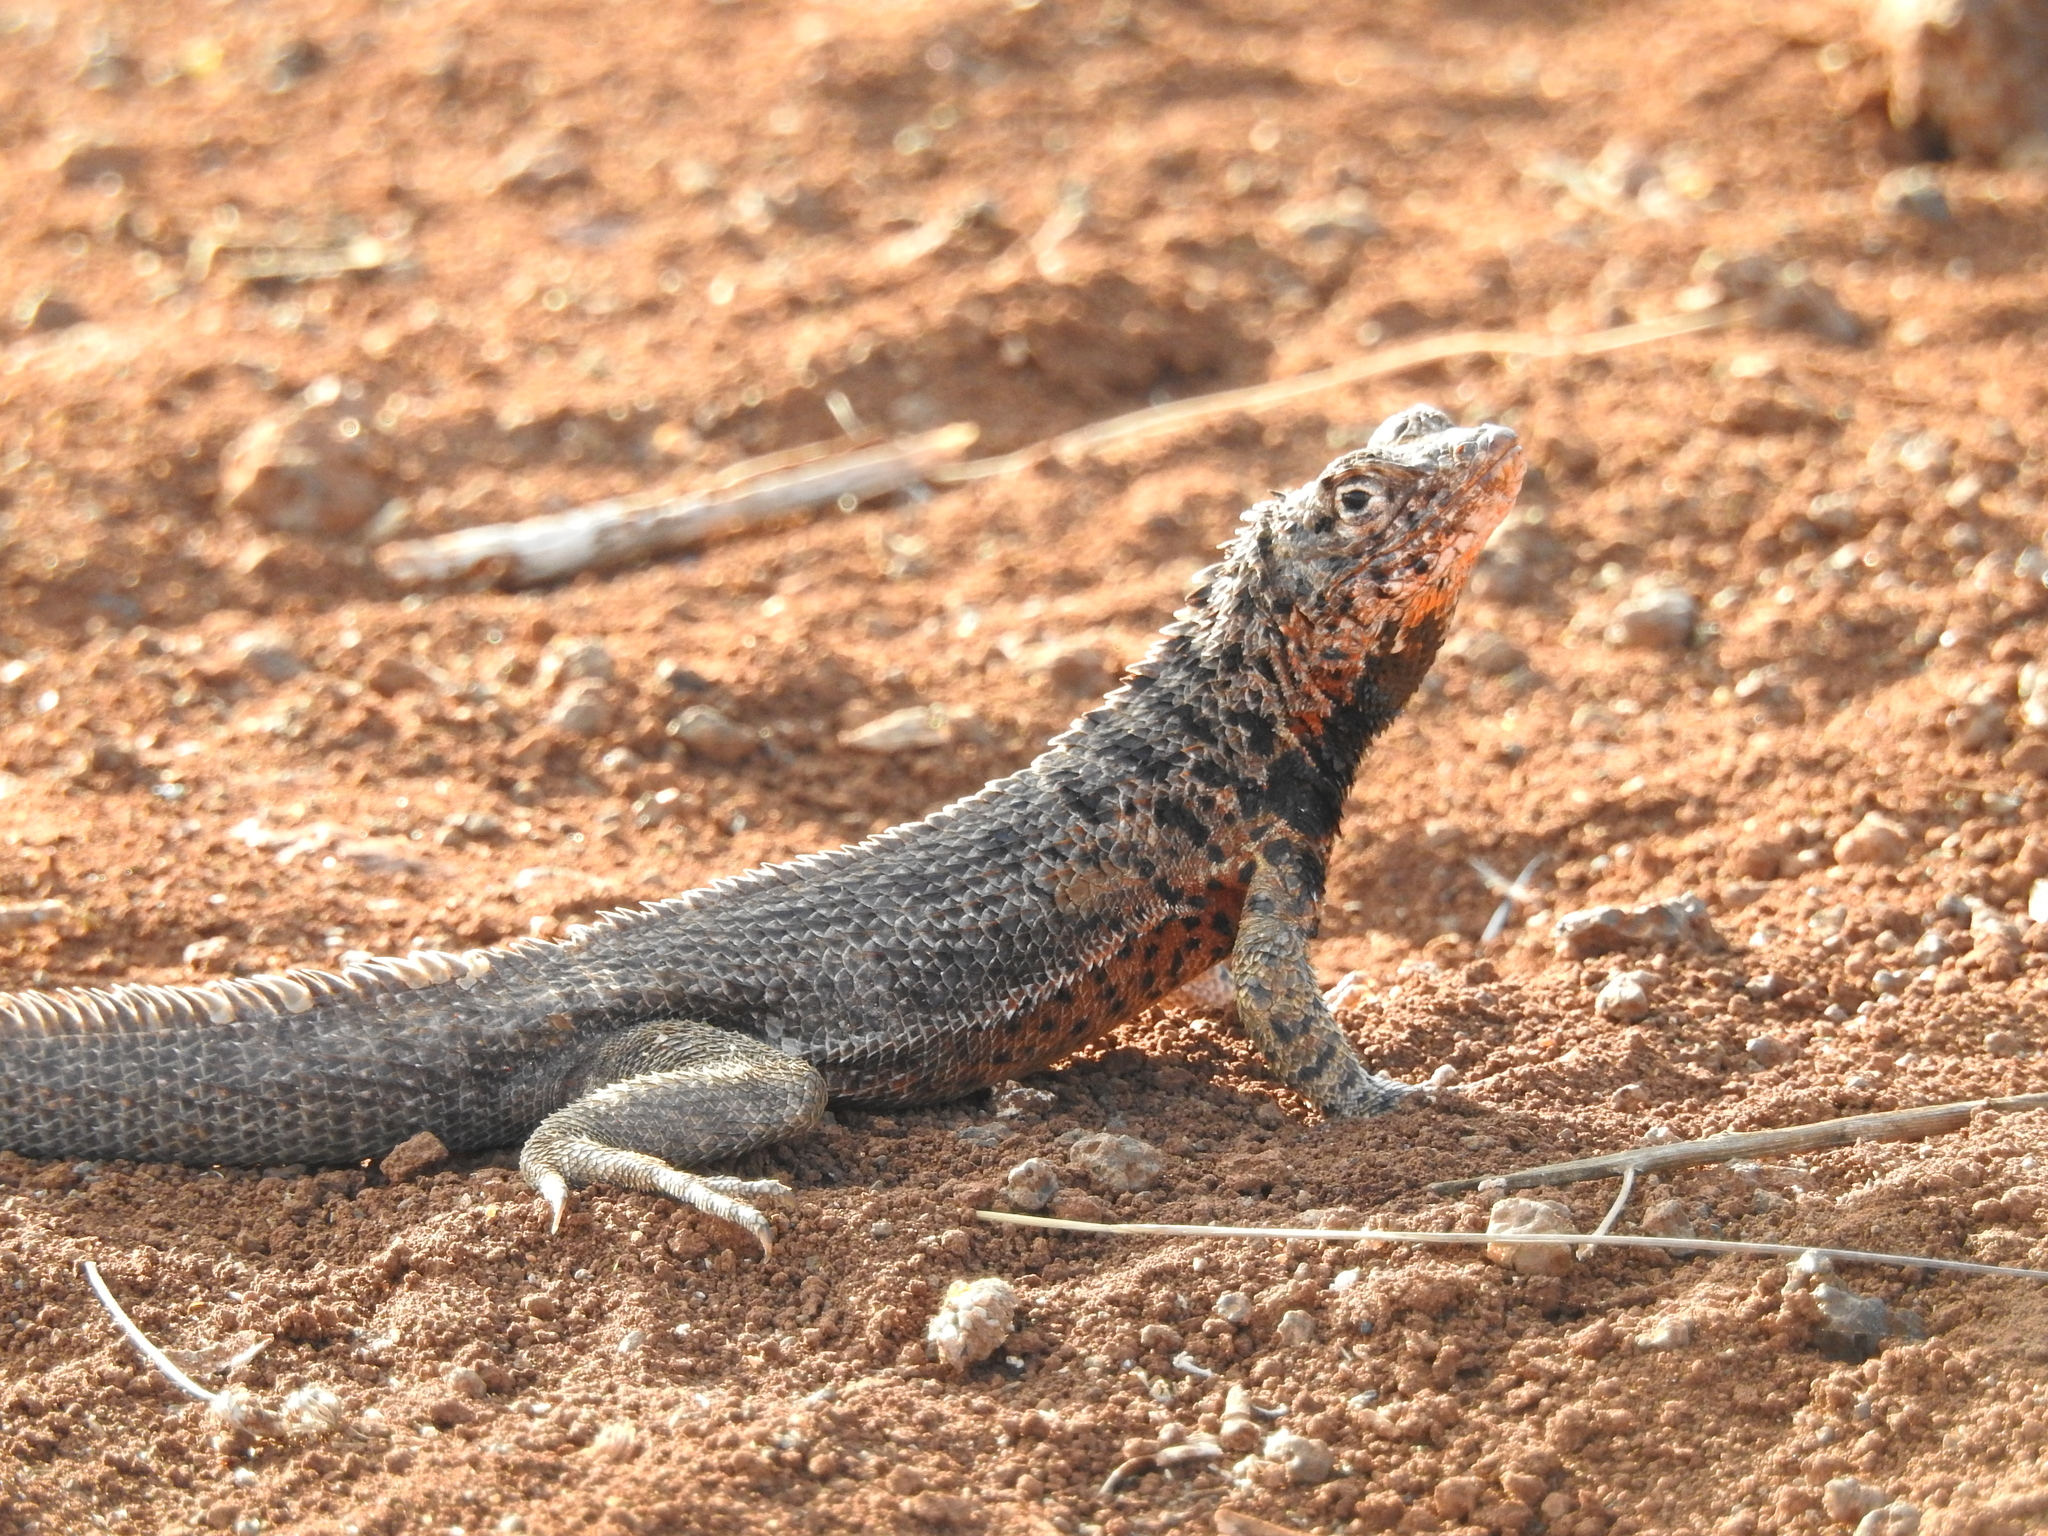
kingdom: Animalia
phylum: Chordata
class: Squamata
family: Tropiduridae
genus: Microlophus
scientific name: Microlophus indefatigabilis
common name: Galapagos lava lizard
